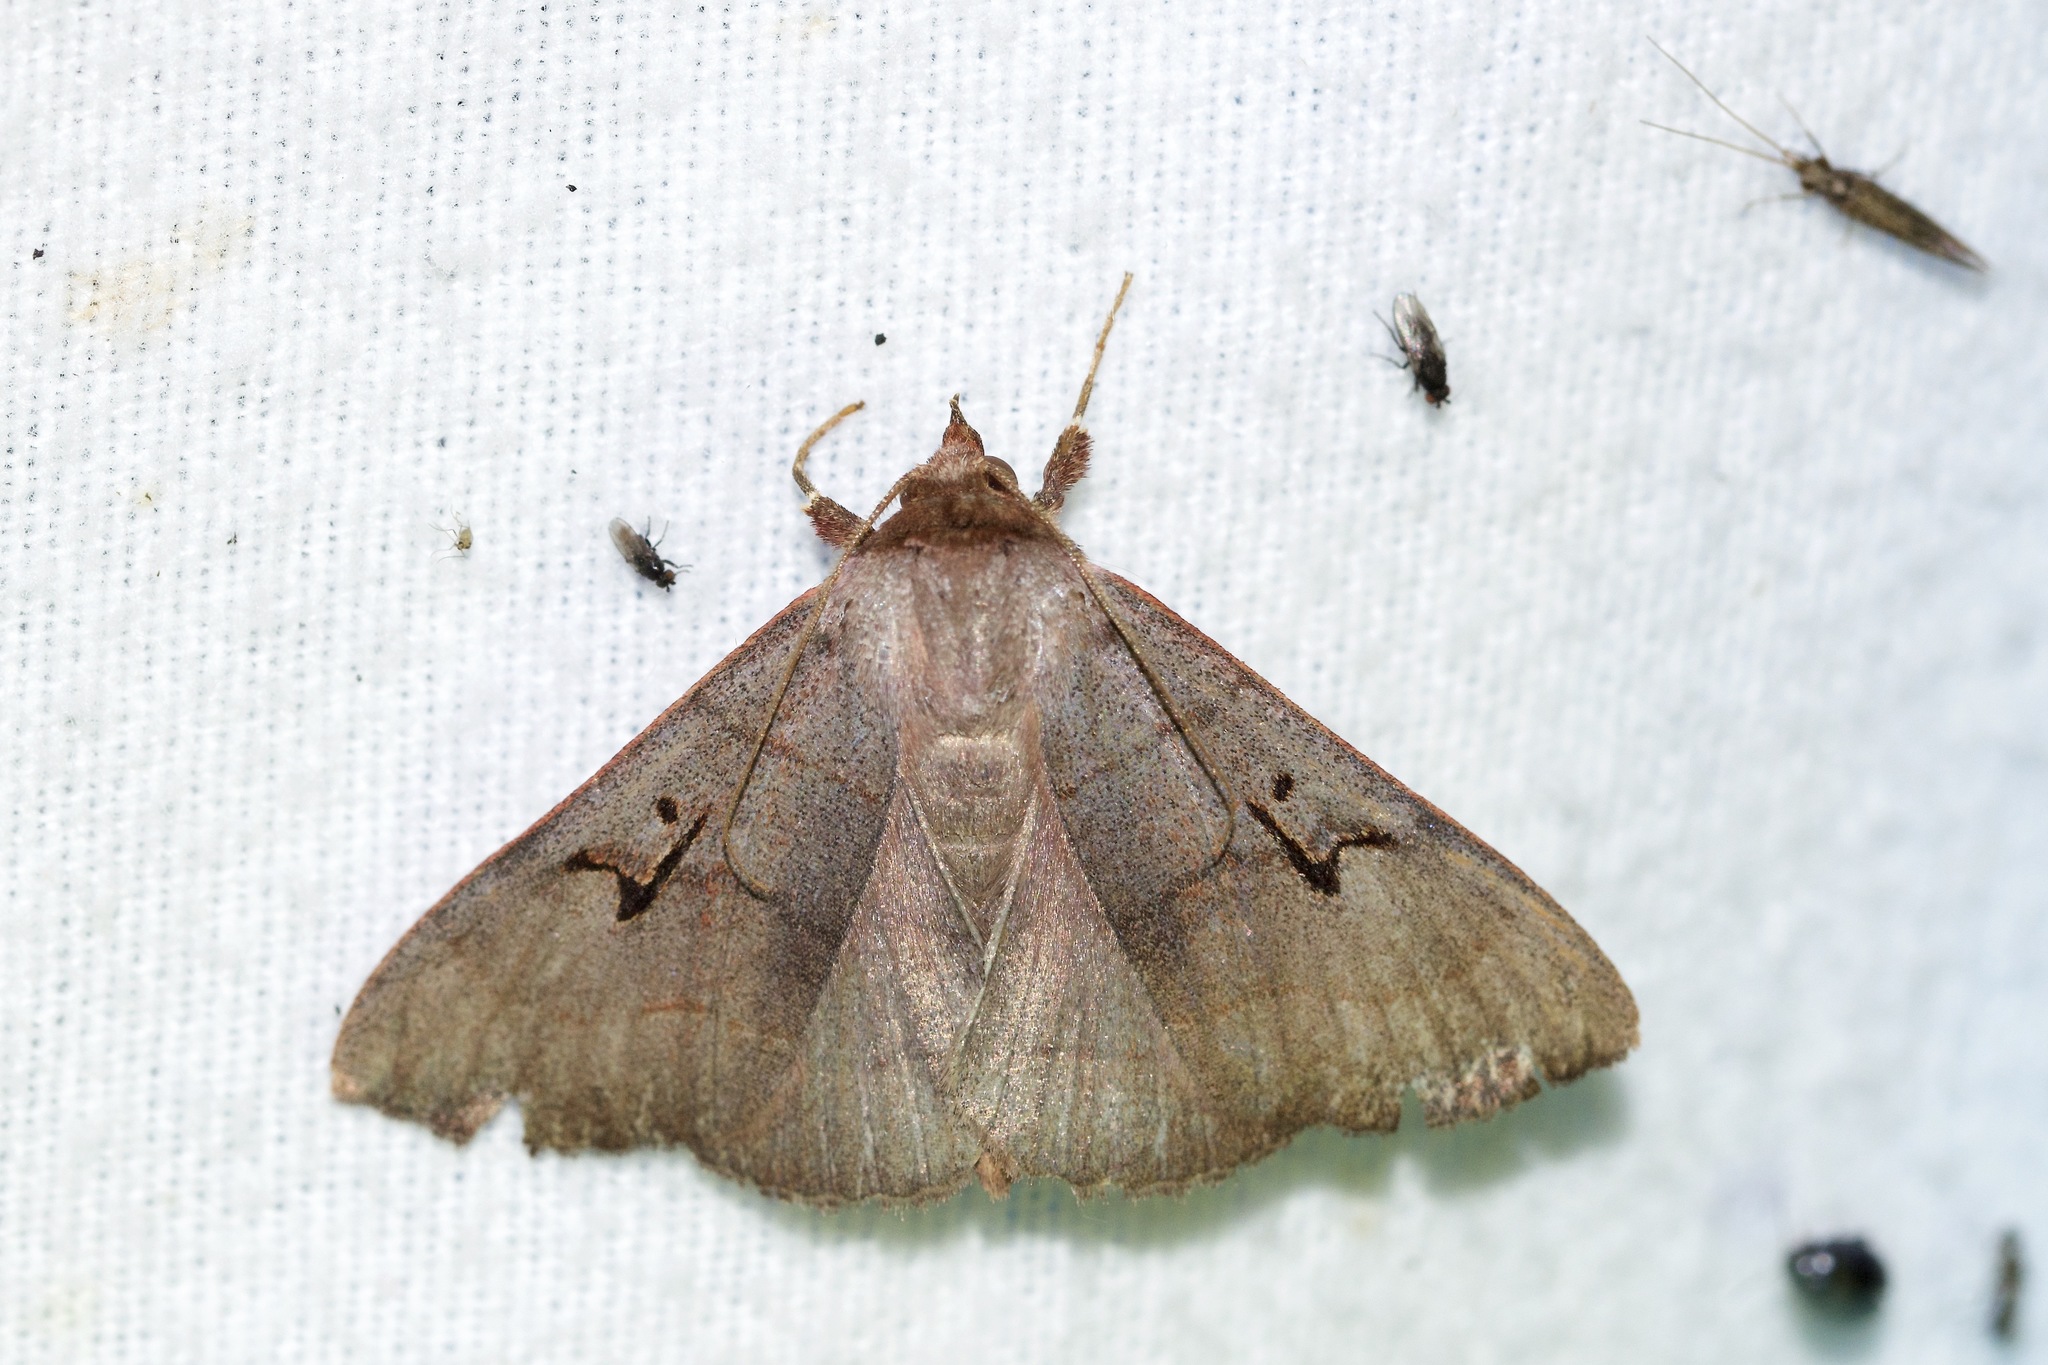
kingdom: Animalia
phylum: Arthropoda
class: Insecta
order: Lepidoptera
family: Erebidae
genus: Panopoda
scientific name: Panopoda carneicosta
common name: Brown panopoda moth
